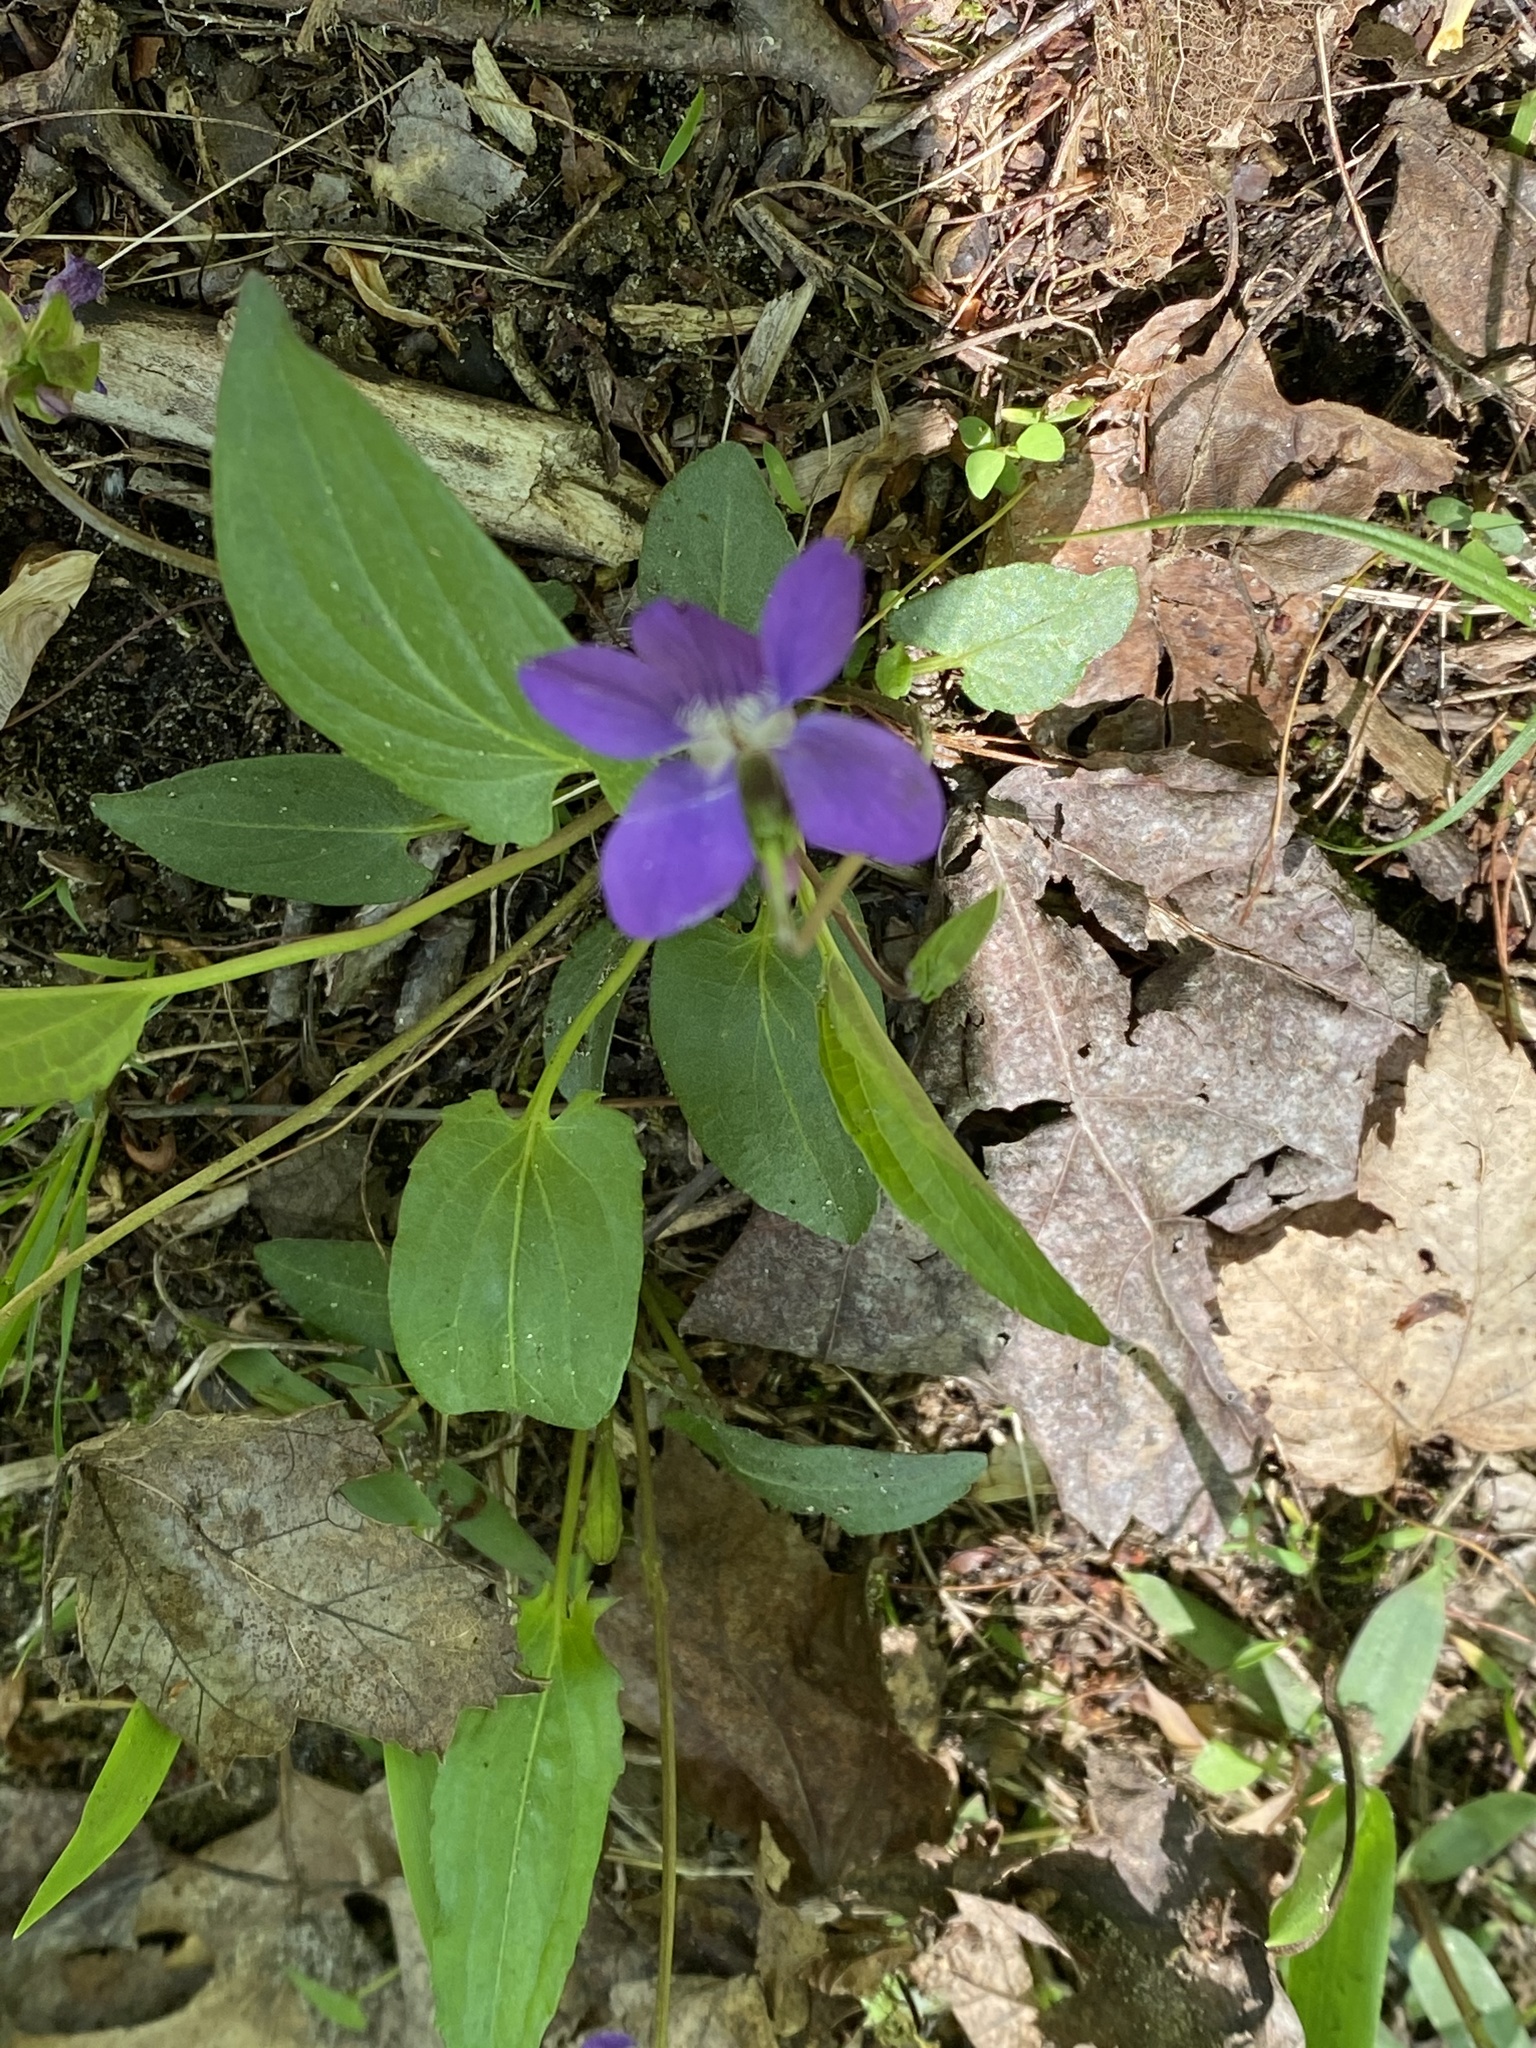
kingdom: Plantae
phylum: Tracheophyta
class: Magnoliopsida
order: Malpighiales
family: Violaceae
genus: Viola
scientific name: Viola sagittata
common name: Arrowhead violet
